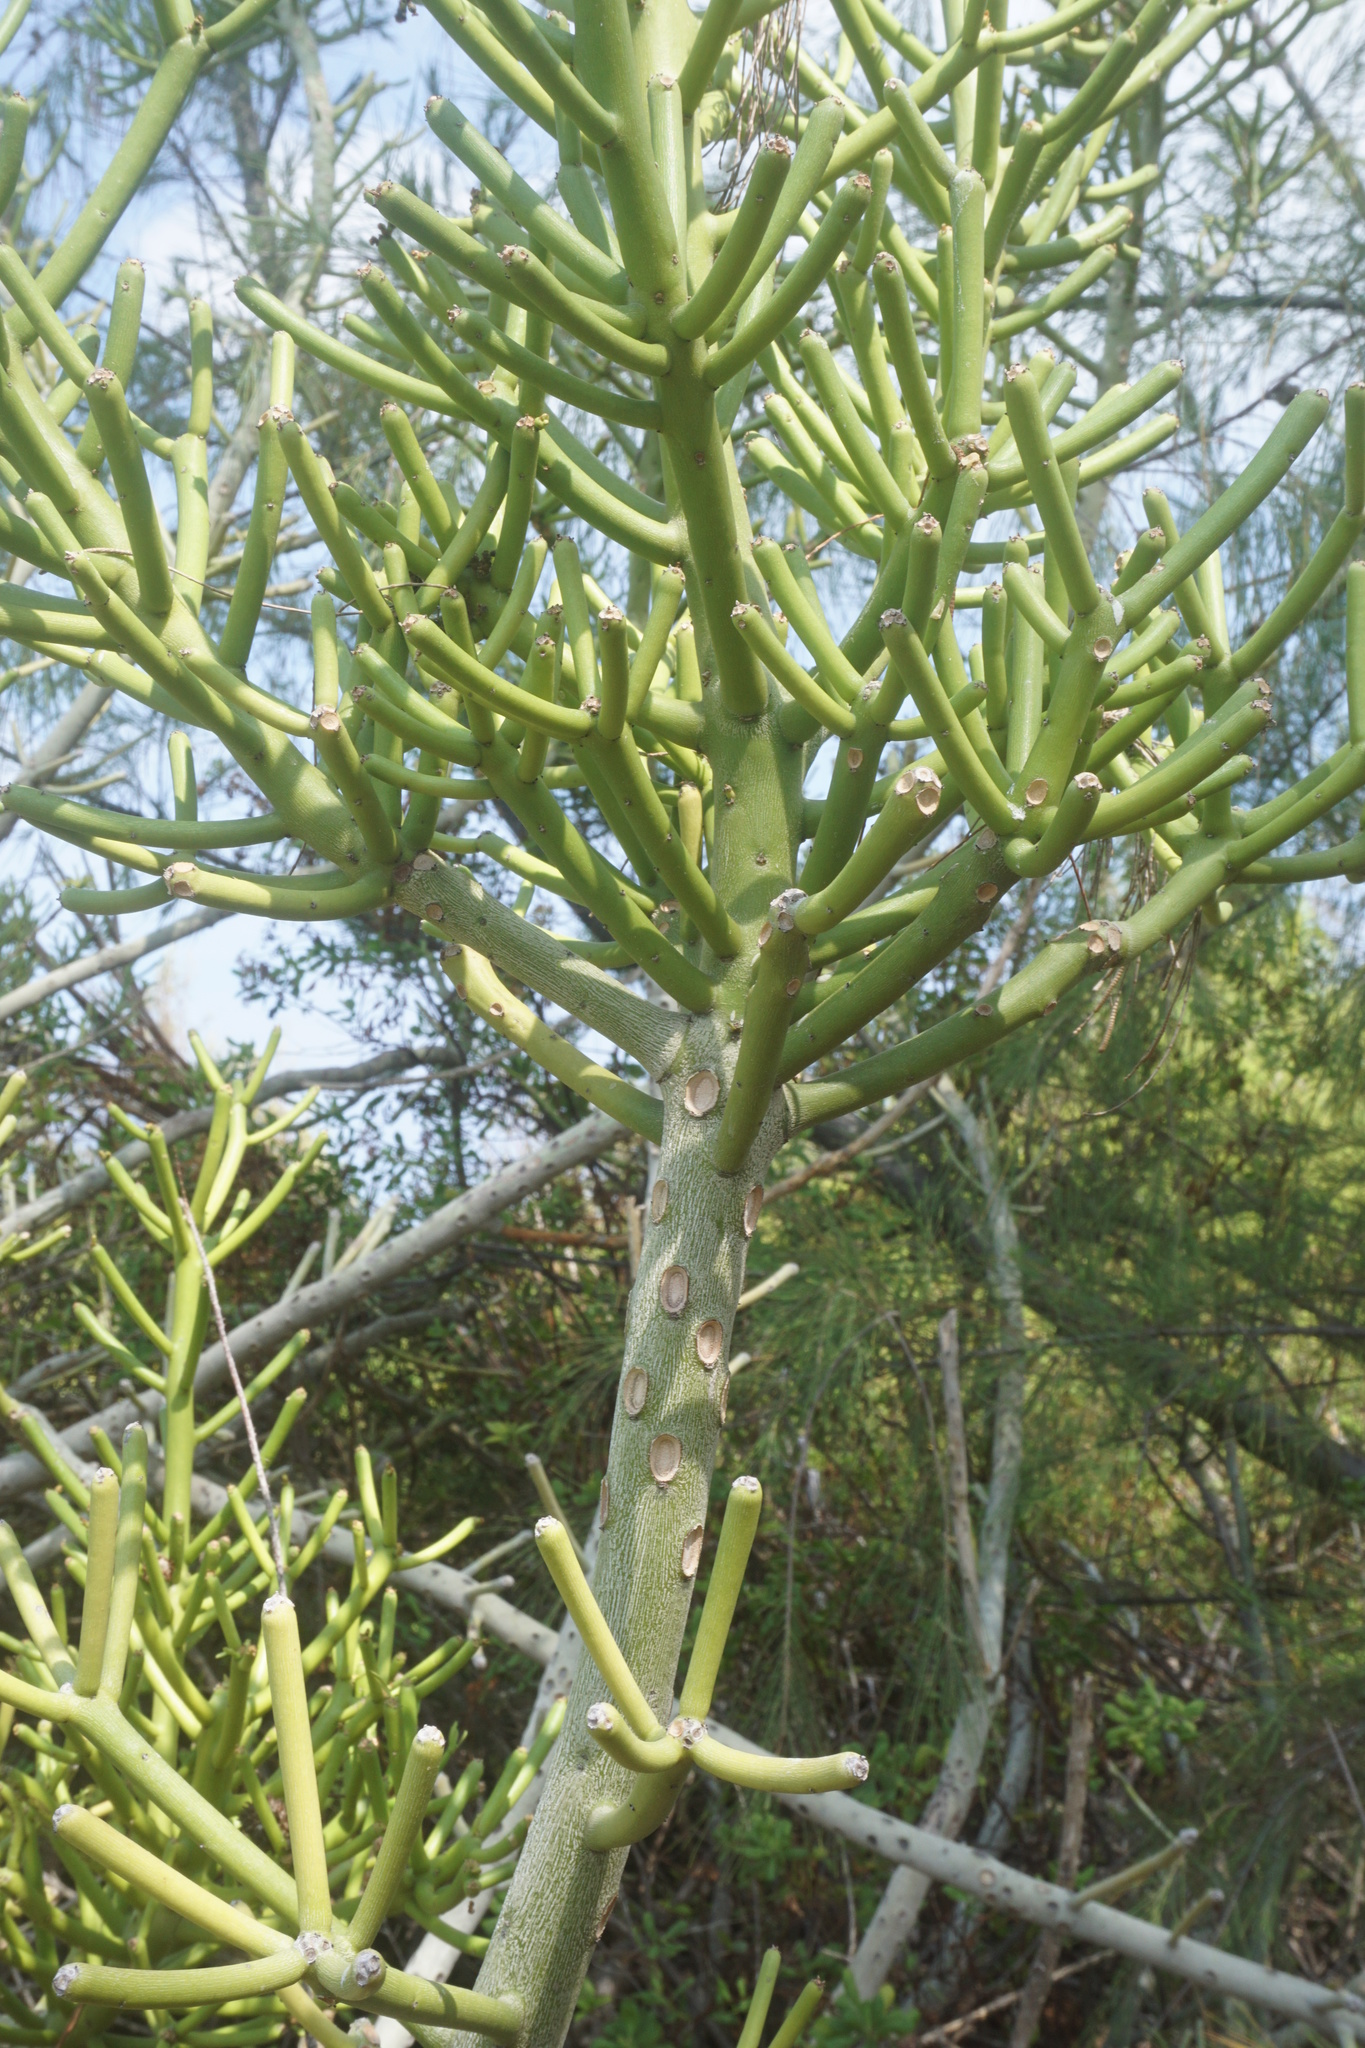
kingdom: Plantae
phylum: Tracheophyta
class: Magnoliopsida
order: Malpighiales
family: Euphorbiaceae
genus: Euphorbia
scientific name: Euphorbia tirucalli
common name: Indiantree spurge
